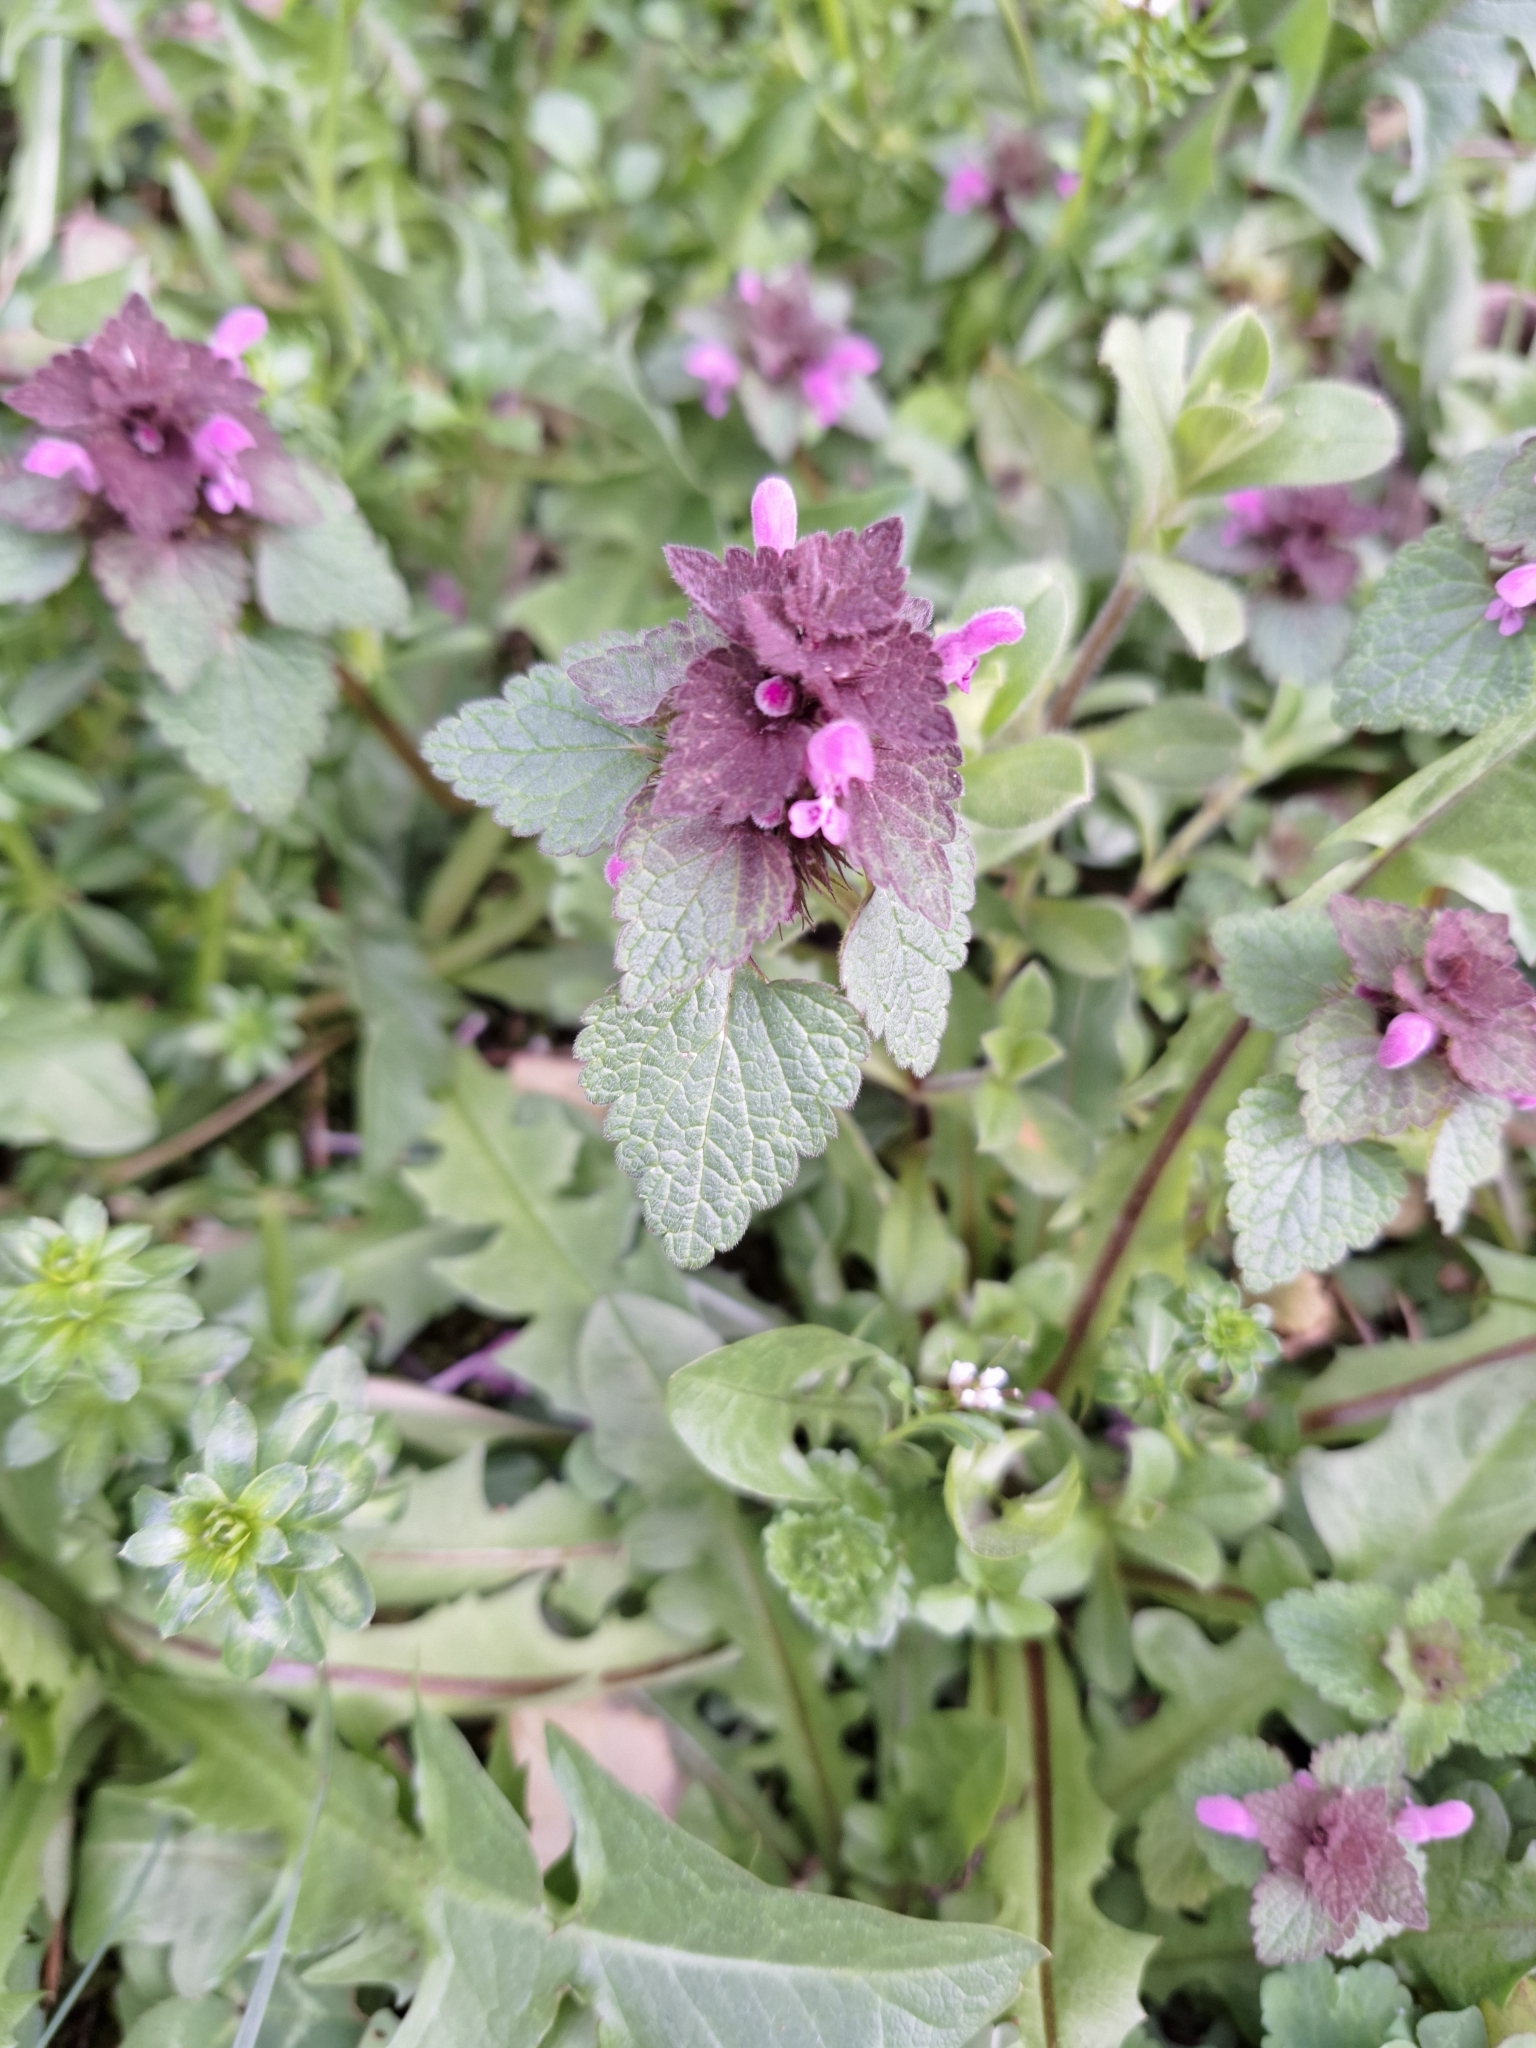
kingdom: Plantae
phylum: Tracheophyta
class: Magnoliopsida
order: Lamiales
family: Lamiaceae
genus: Lamium
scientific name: Lamium purpureum
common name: Red dead-nettle
